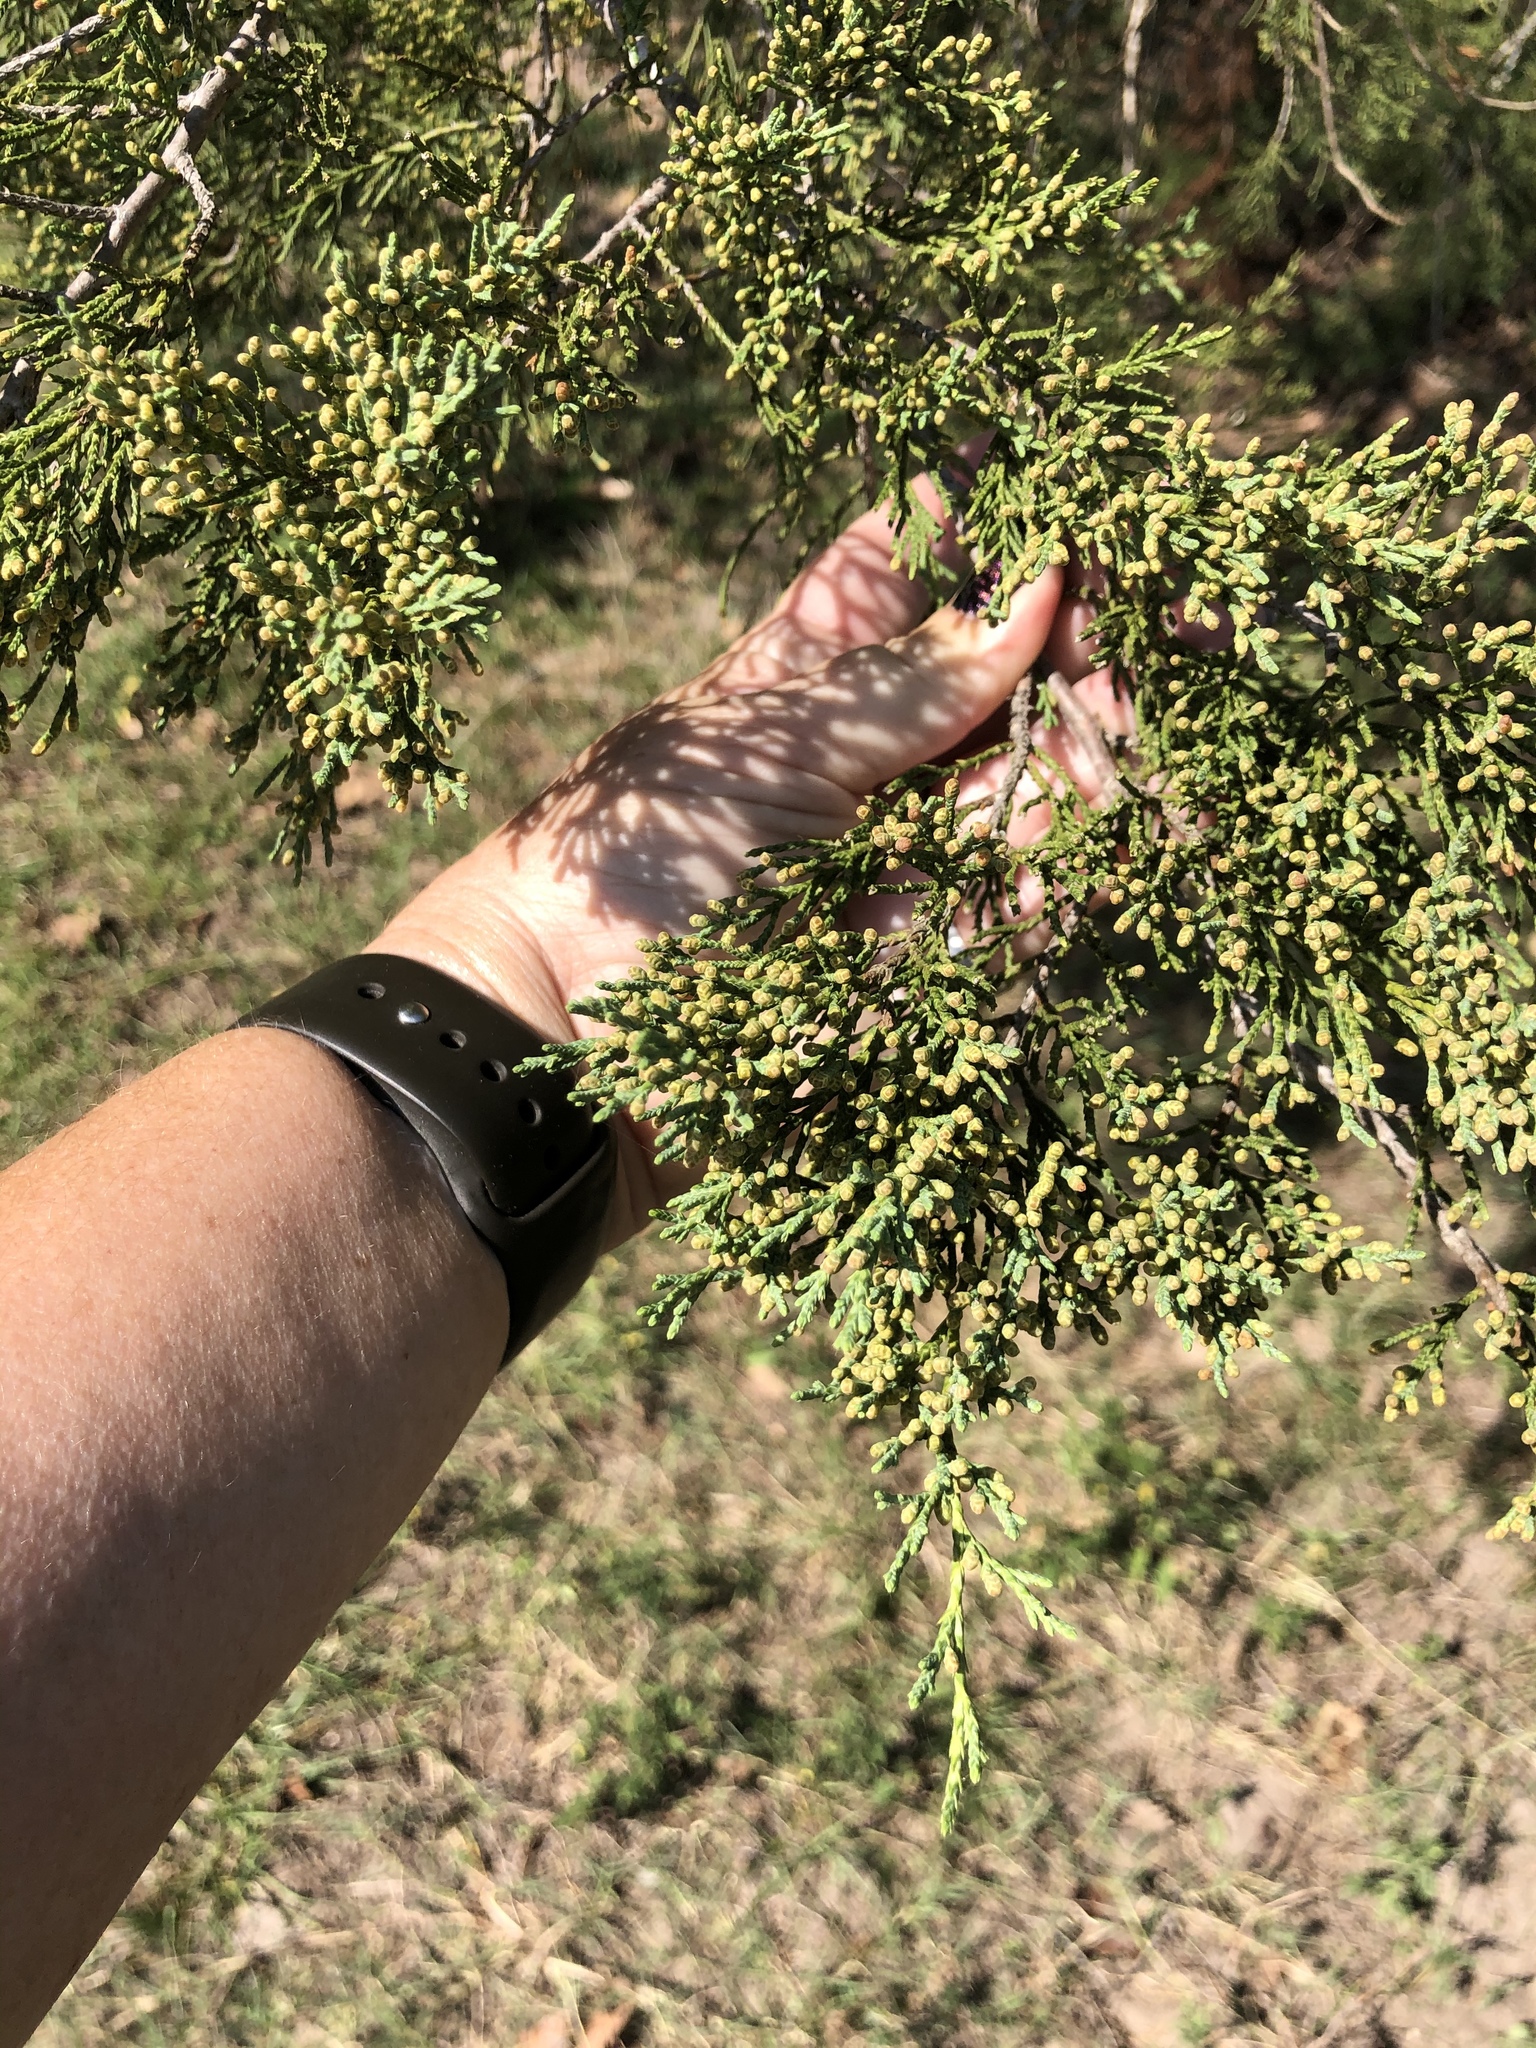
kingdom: Plantae
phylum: Tracheophyta
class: Pinopsida
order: Pinales
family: Cupressaceae
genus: Juniperus
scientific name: Juniperus virginiana
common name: Red juniper
